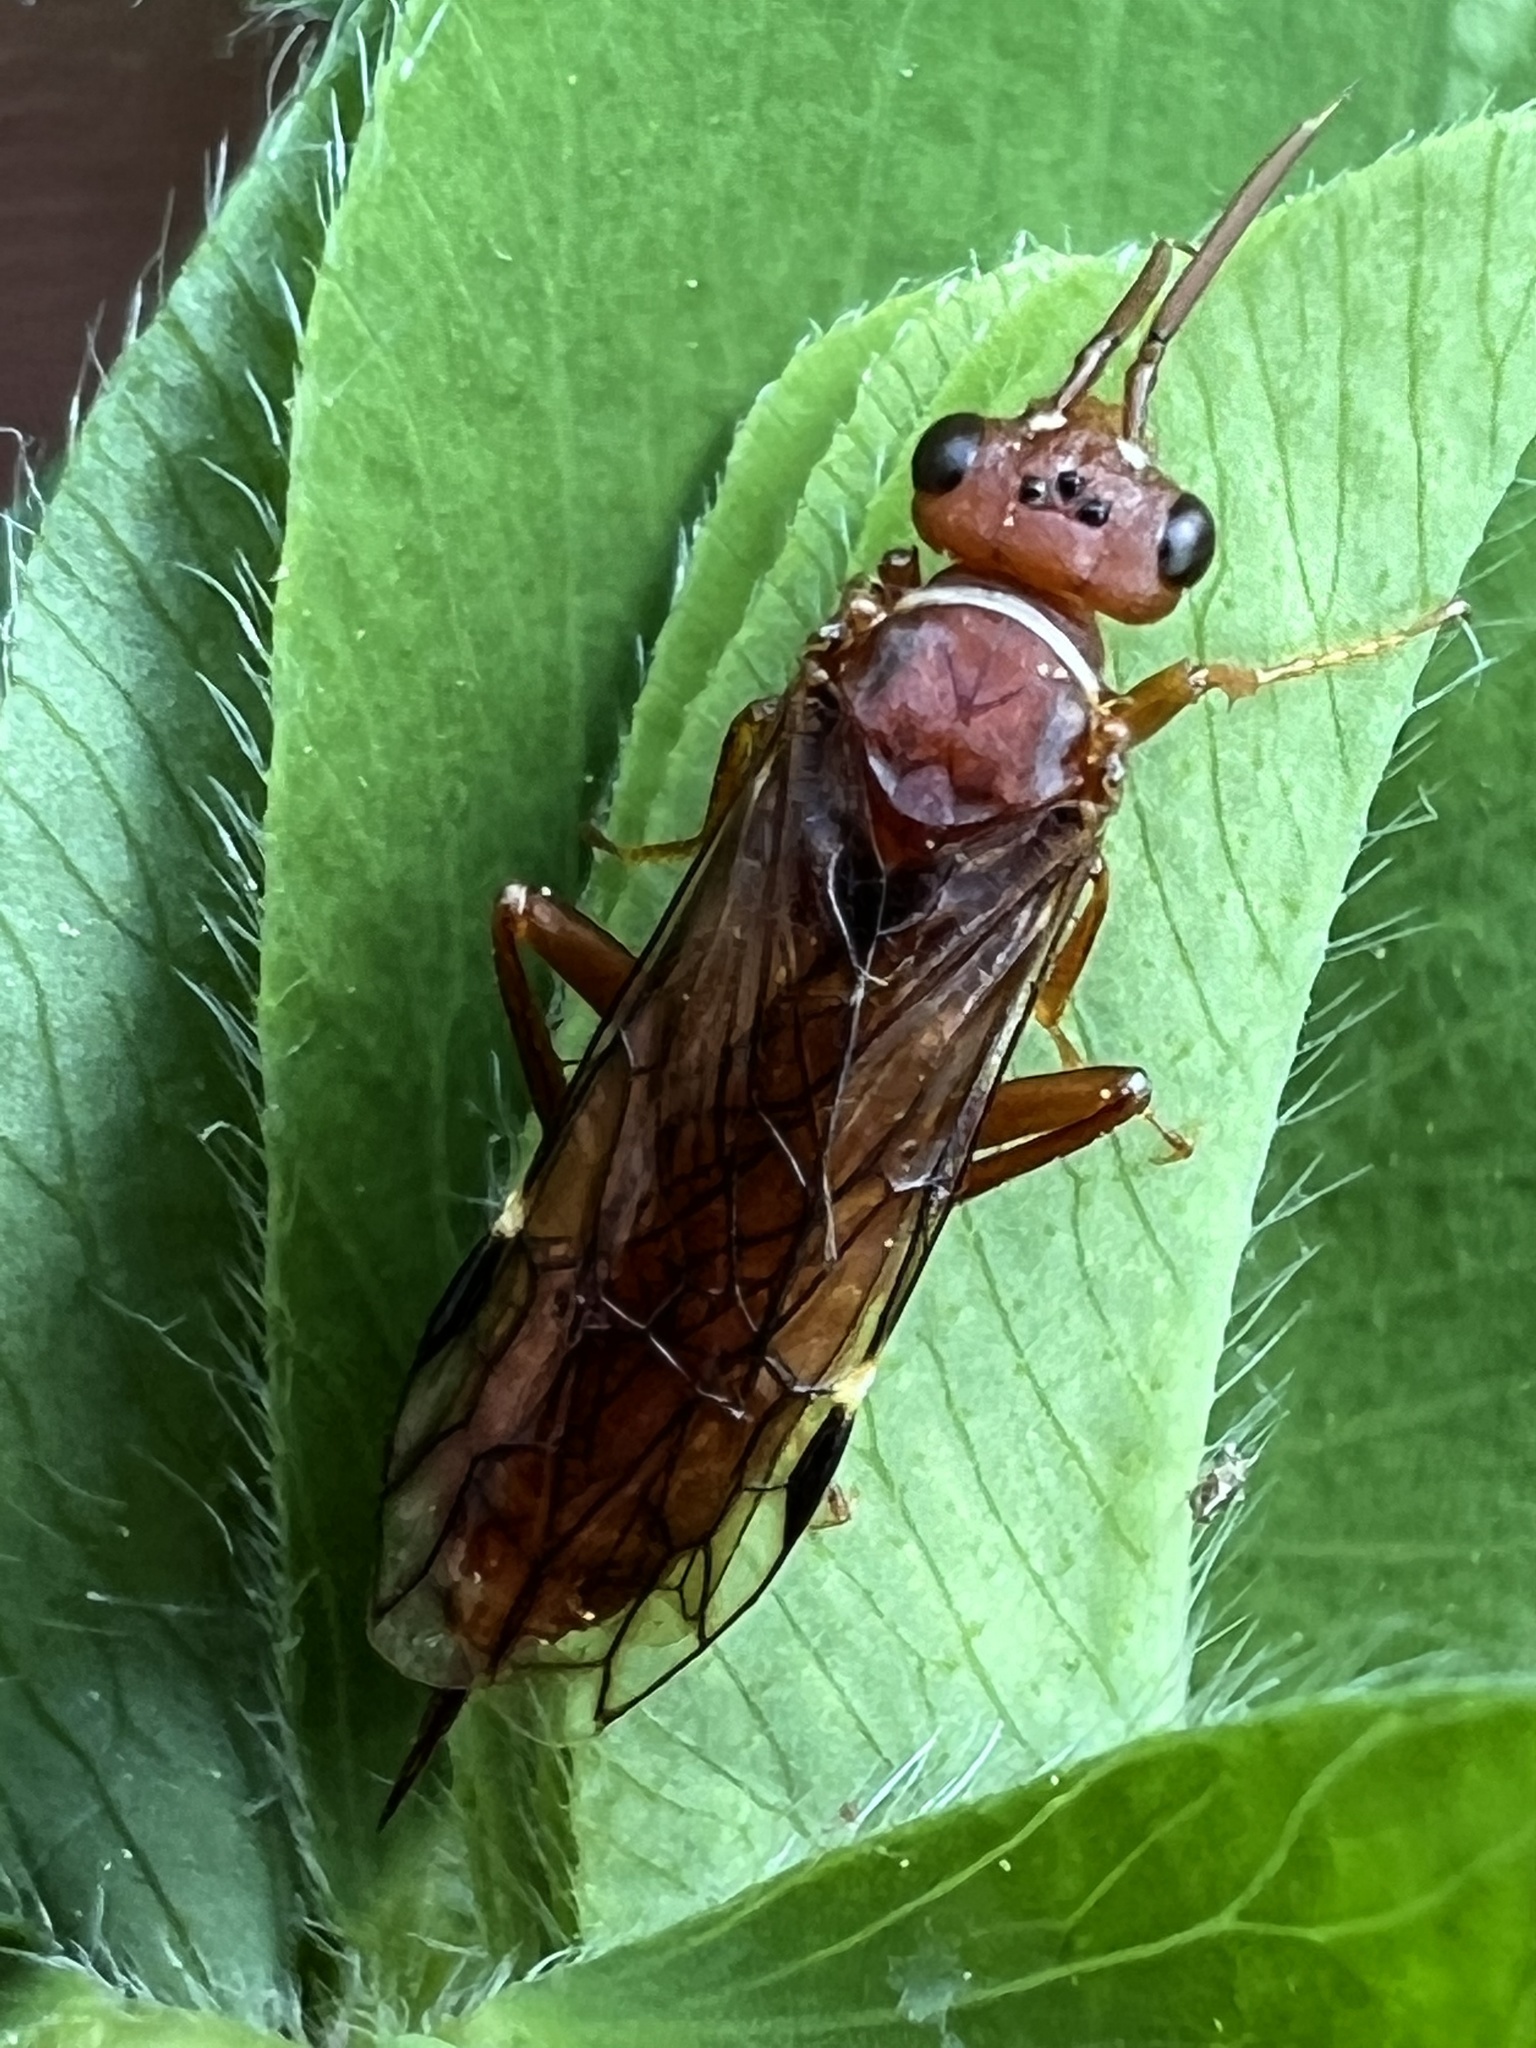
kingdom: Animalia
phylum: Arthropoda
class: Insecta
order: Hymenoptera
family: Xyelidae
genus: Macroxyela
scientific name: Macroxyela ferruginea
